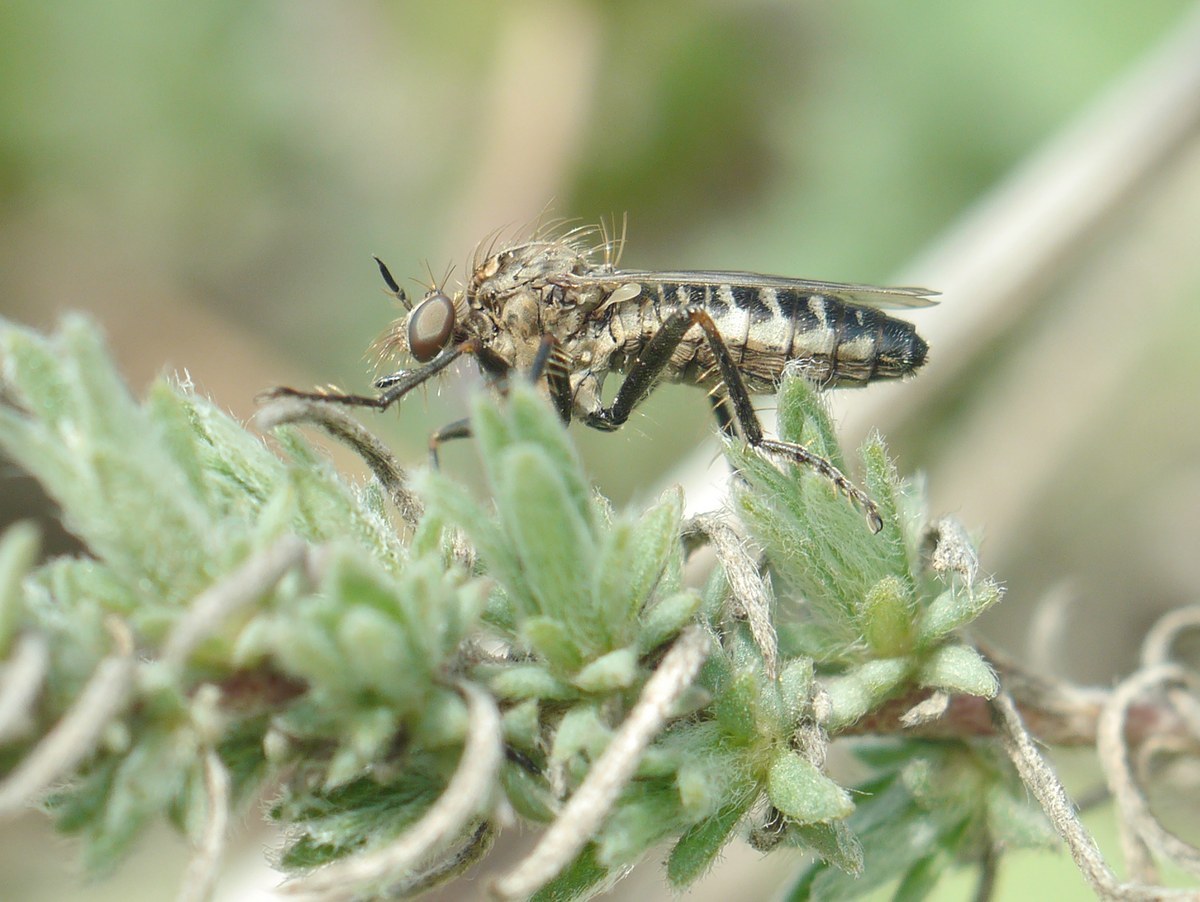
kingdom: Animalia
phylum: Arthropoda
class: Insecta
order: Diptera
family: Asilidae
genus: Paraphamartania
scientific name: Paraphamartania syriaca
